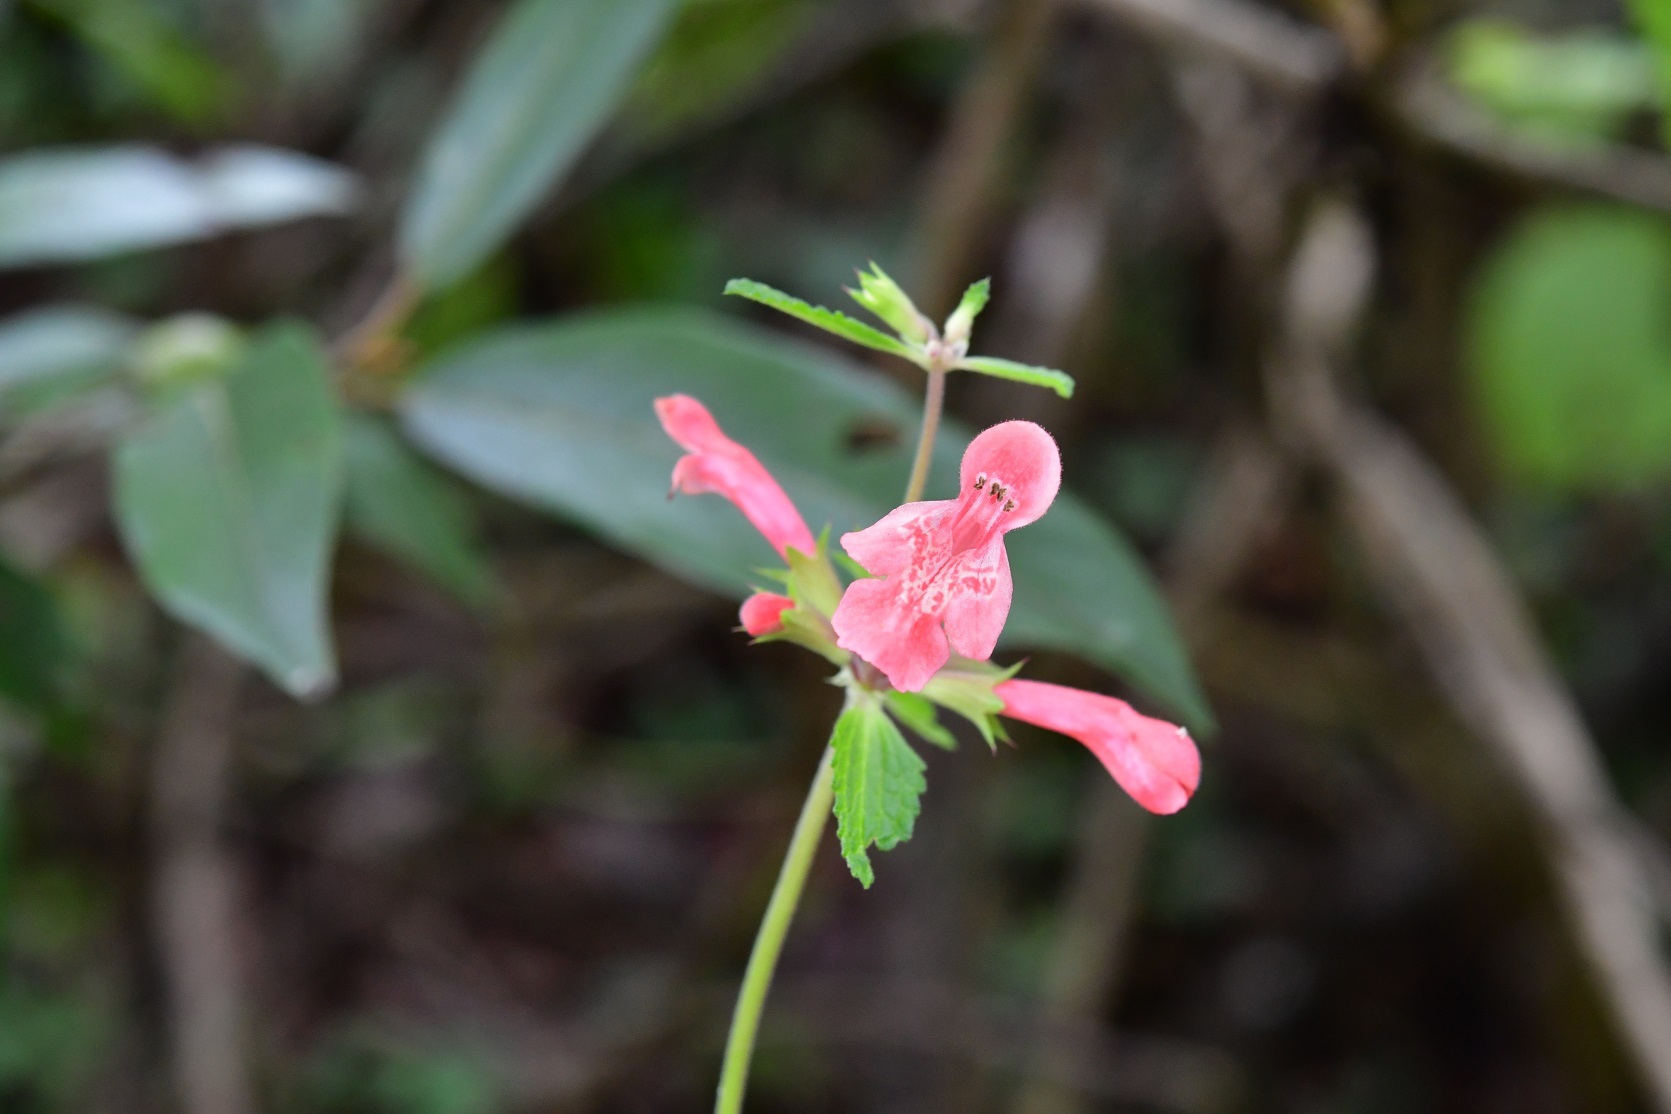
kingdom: Plantae
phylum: Tracheophyta
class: Magnoliopsida
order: Lamiales
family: Lamiaceae
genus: Stachys
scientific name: Stachys coccinea
